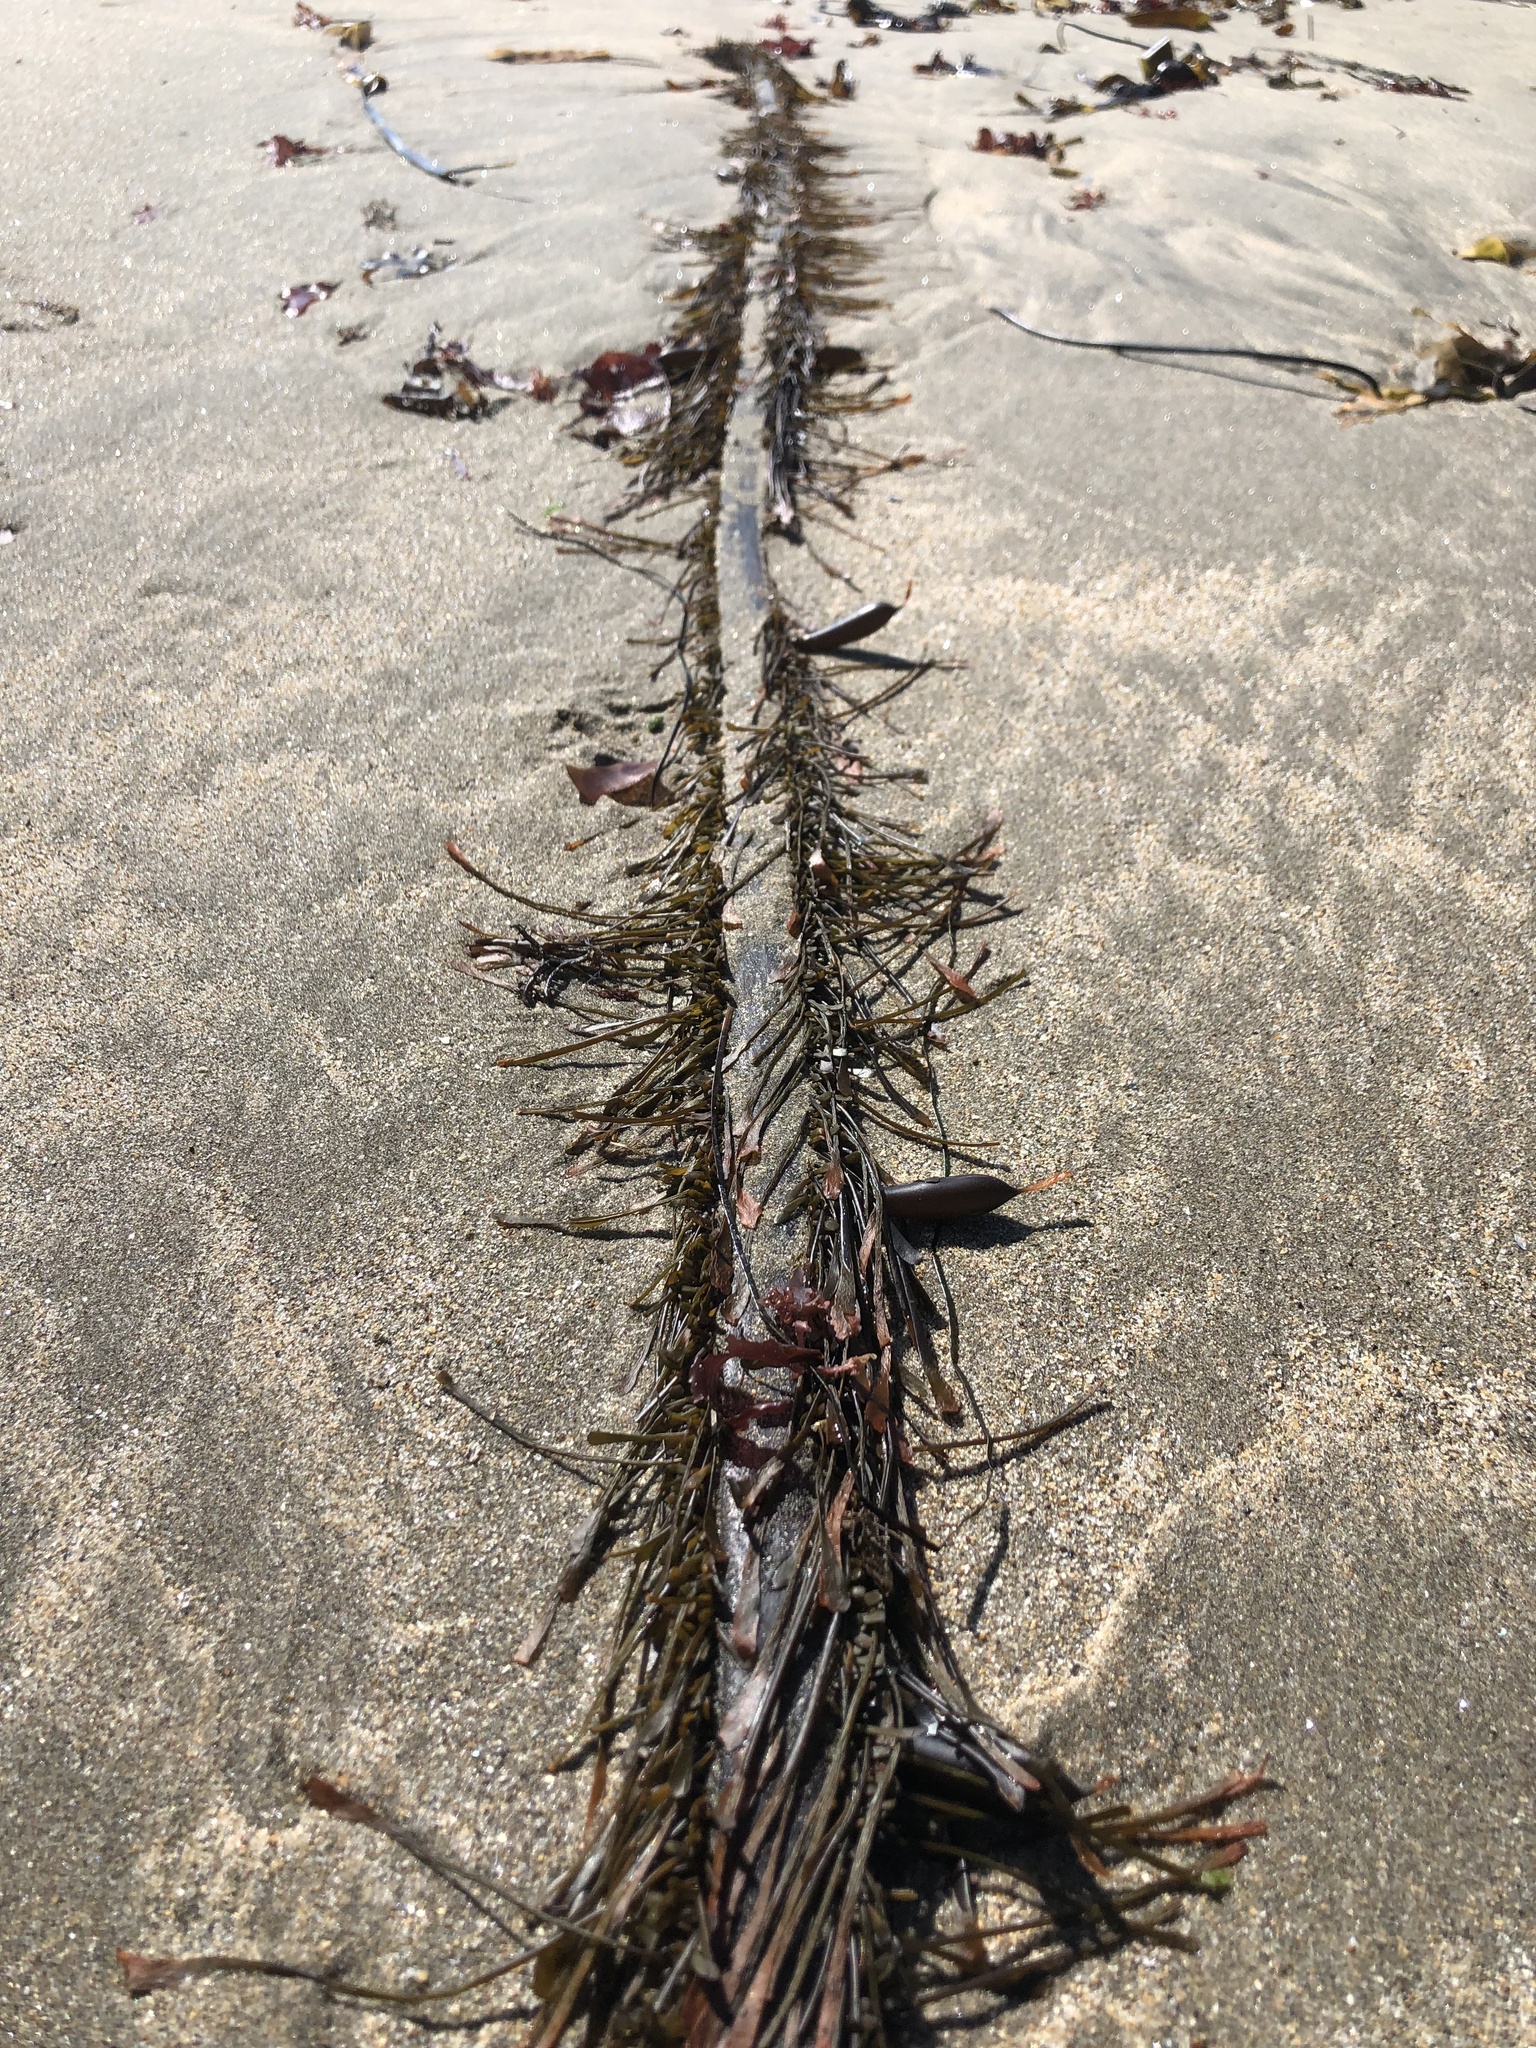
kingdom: Chromista
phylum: Ochrophyta
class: Phaeophyceae
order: Laminariales
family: Lessoniaceae
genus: Egregia
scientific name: Egregia menziesii
